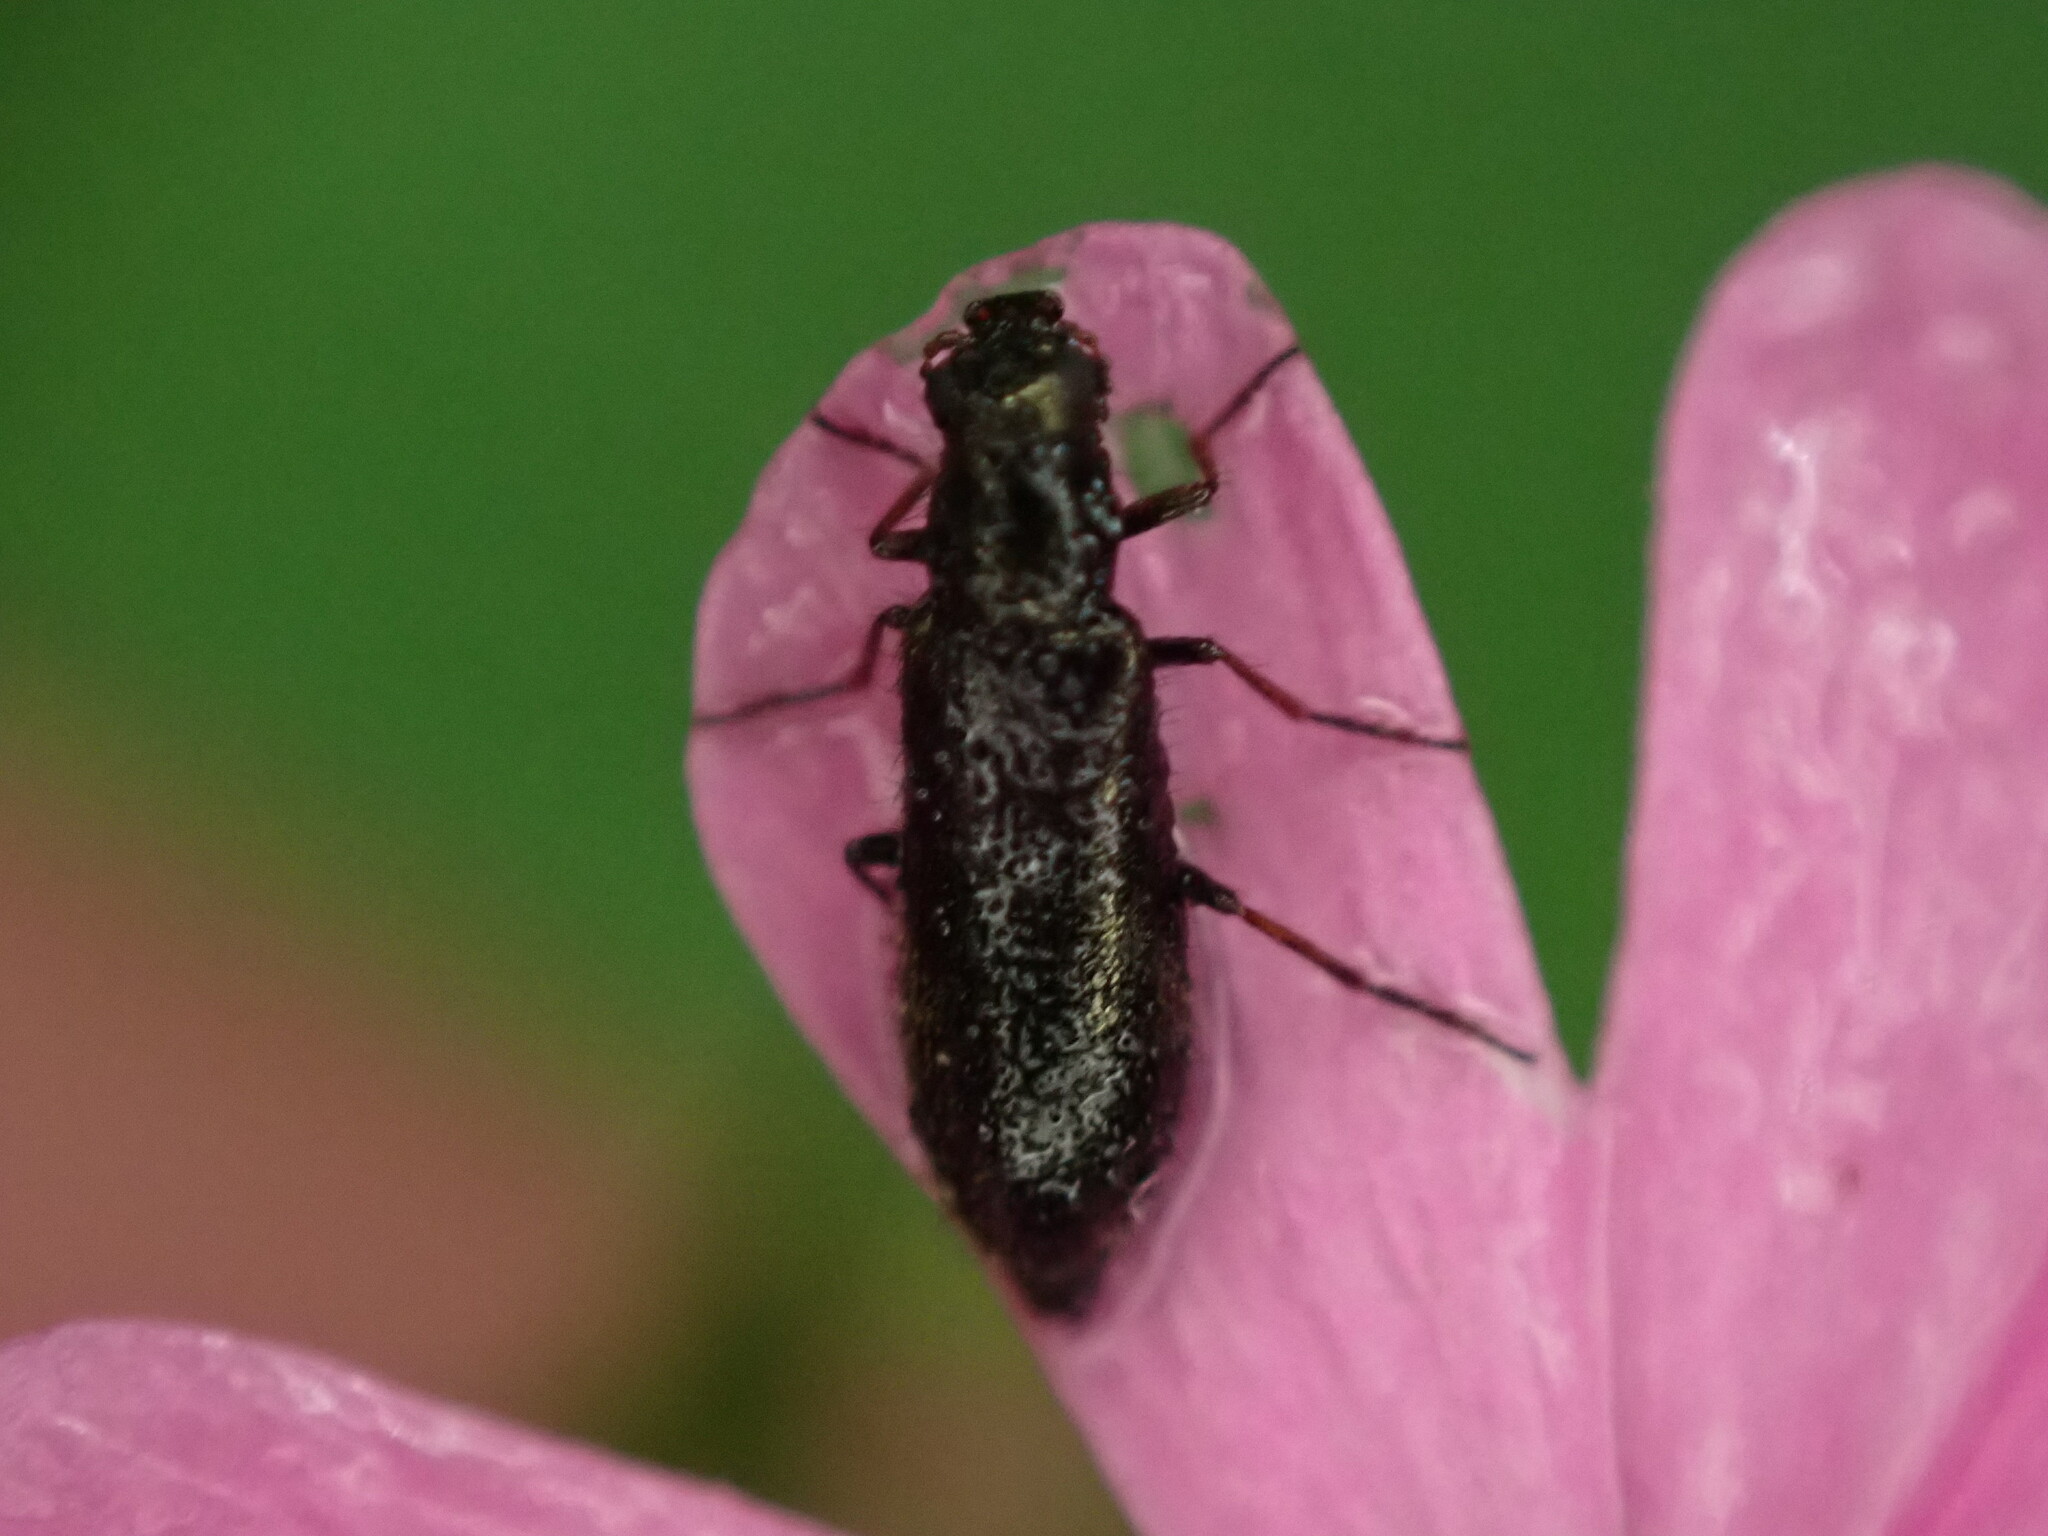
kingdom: Animalia
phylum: Arthropoda
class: Insecta
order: Coleoptera
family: Melyridae
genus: Dasytes
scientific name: Dasytes plumbeus
